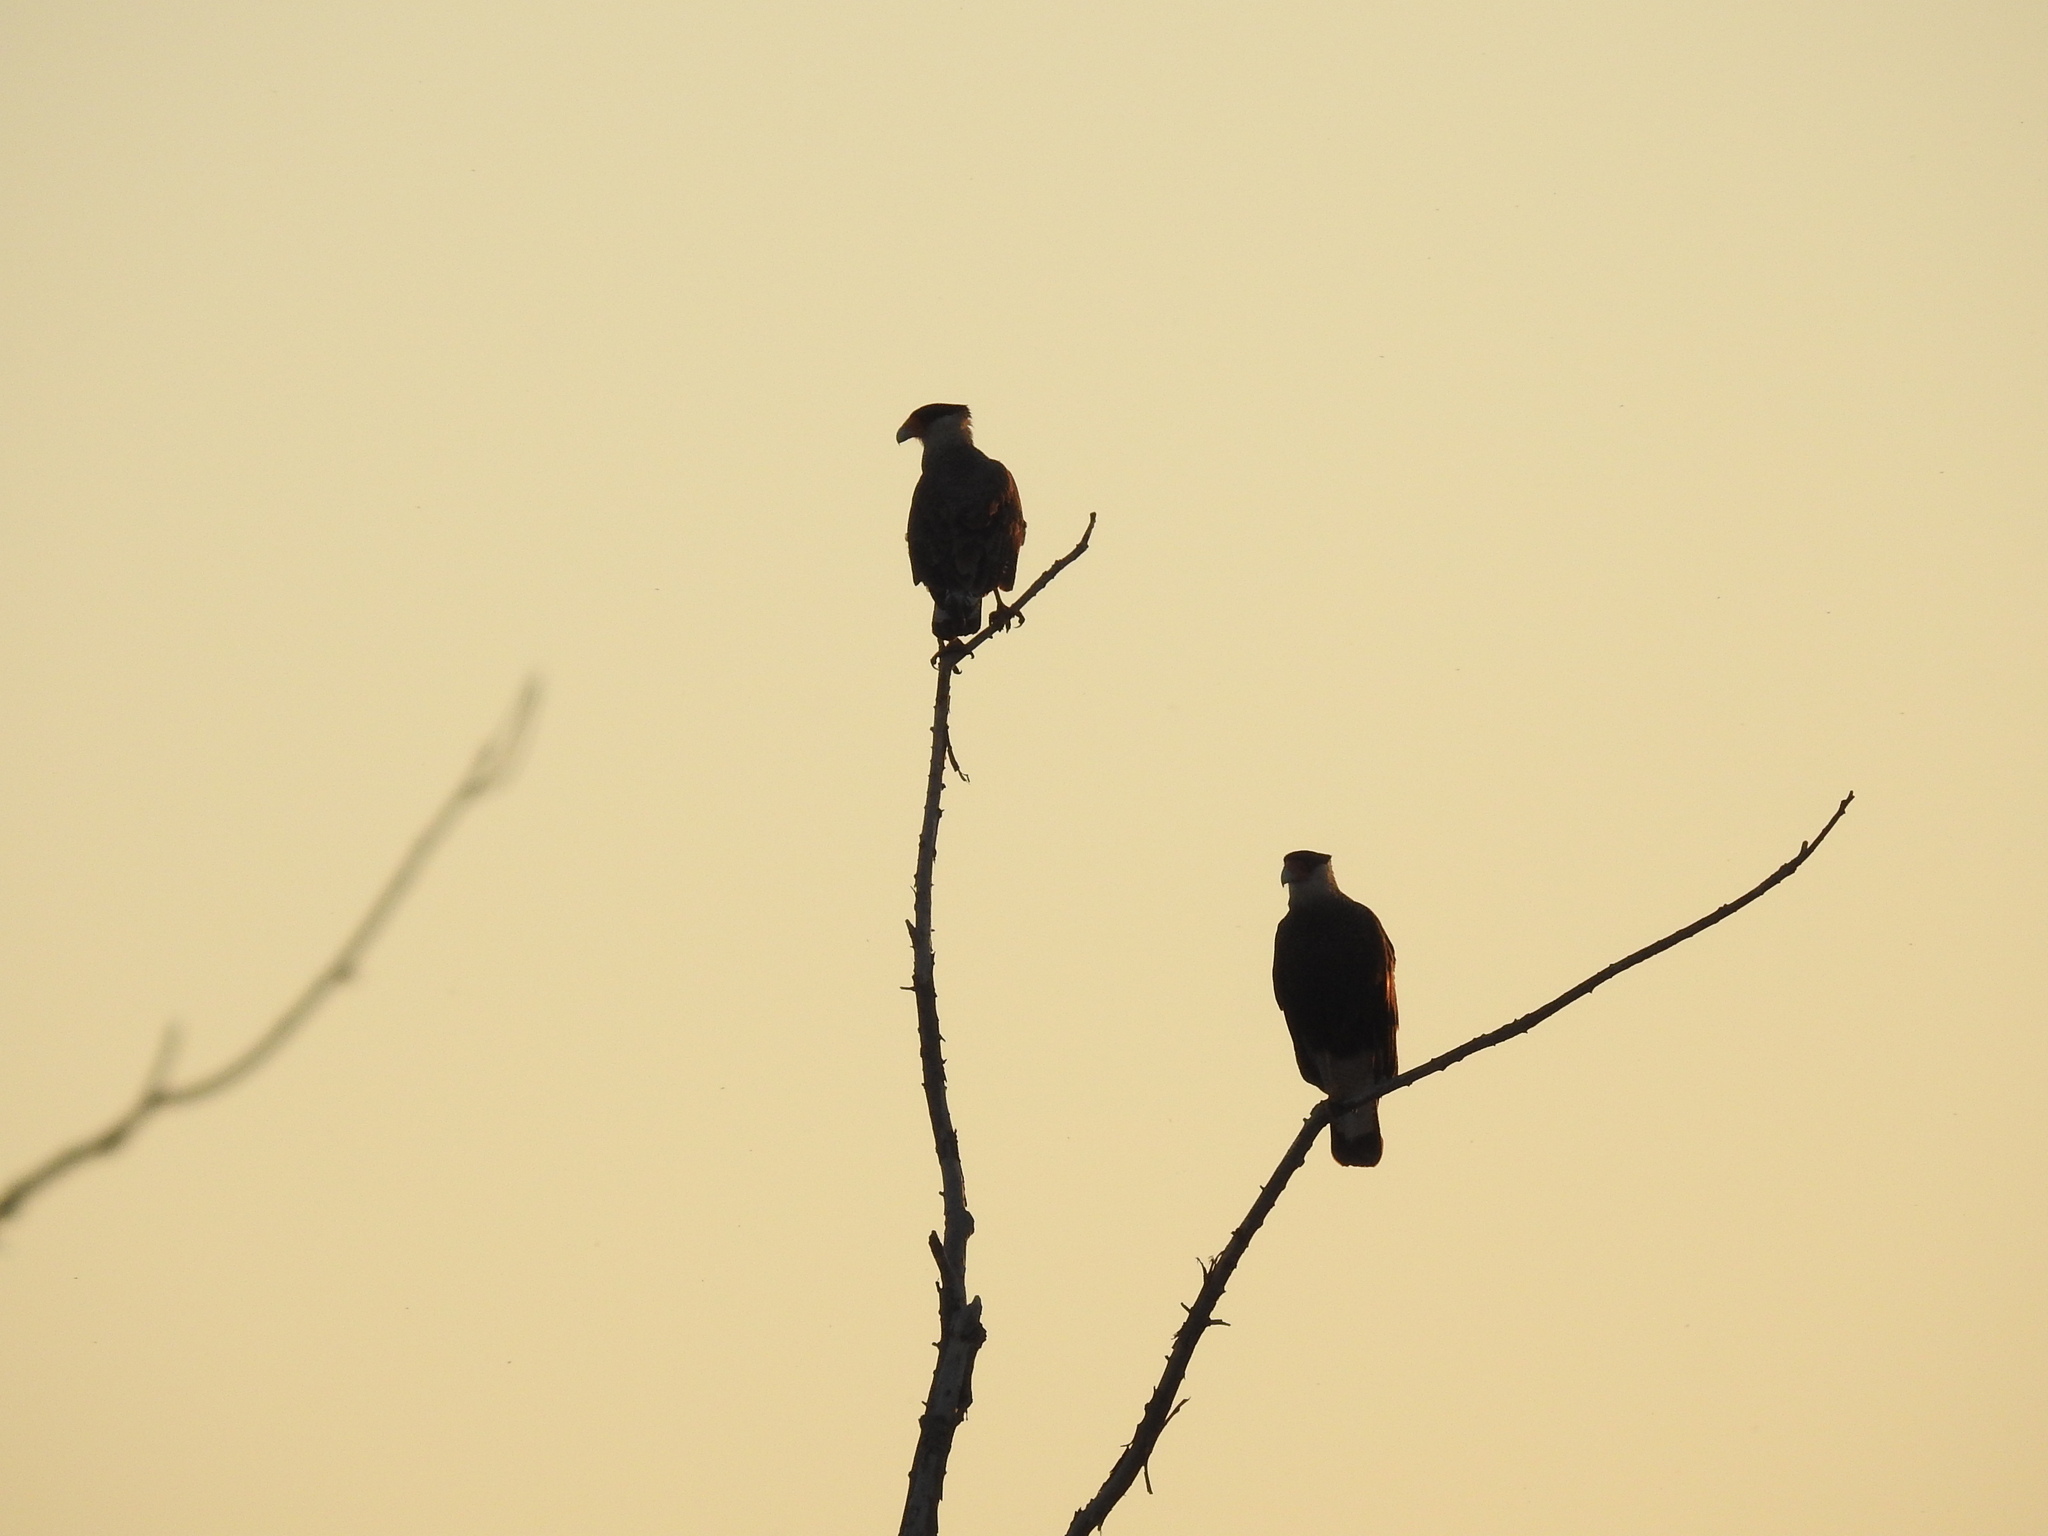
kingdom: Animalia
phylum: Chordata
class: Aves
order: Falconiformes
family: Falconidae
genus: Caracara
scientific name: Caracara plancus
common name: Southern caracara
